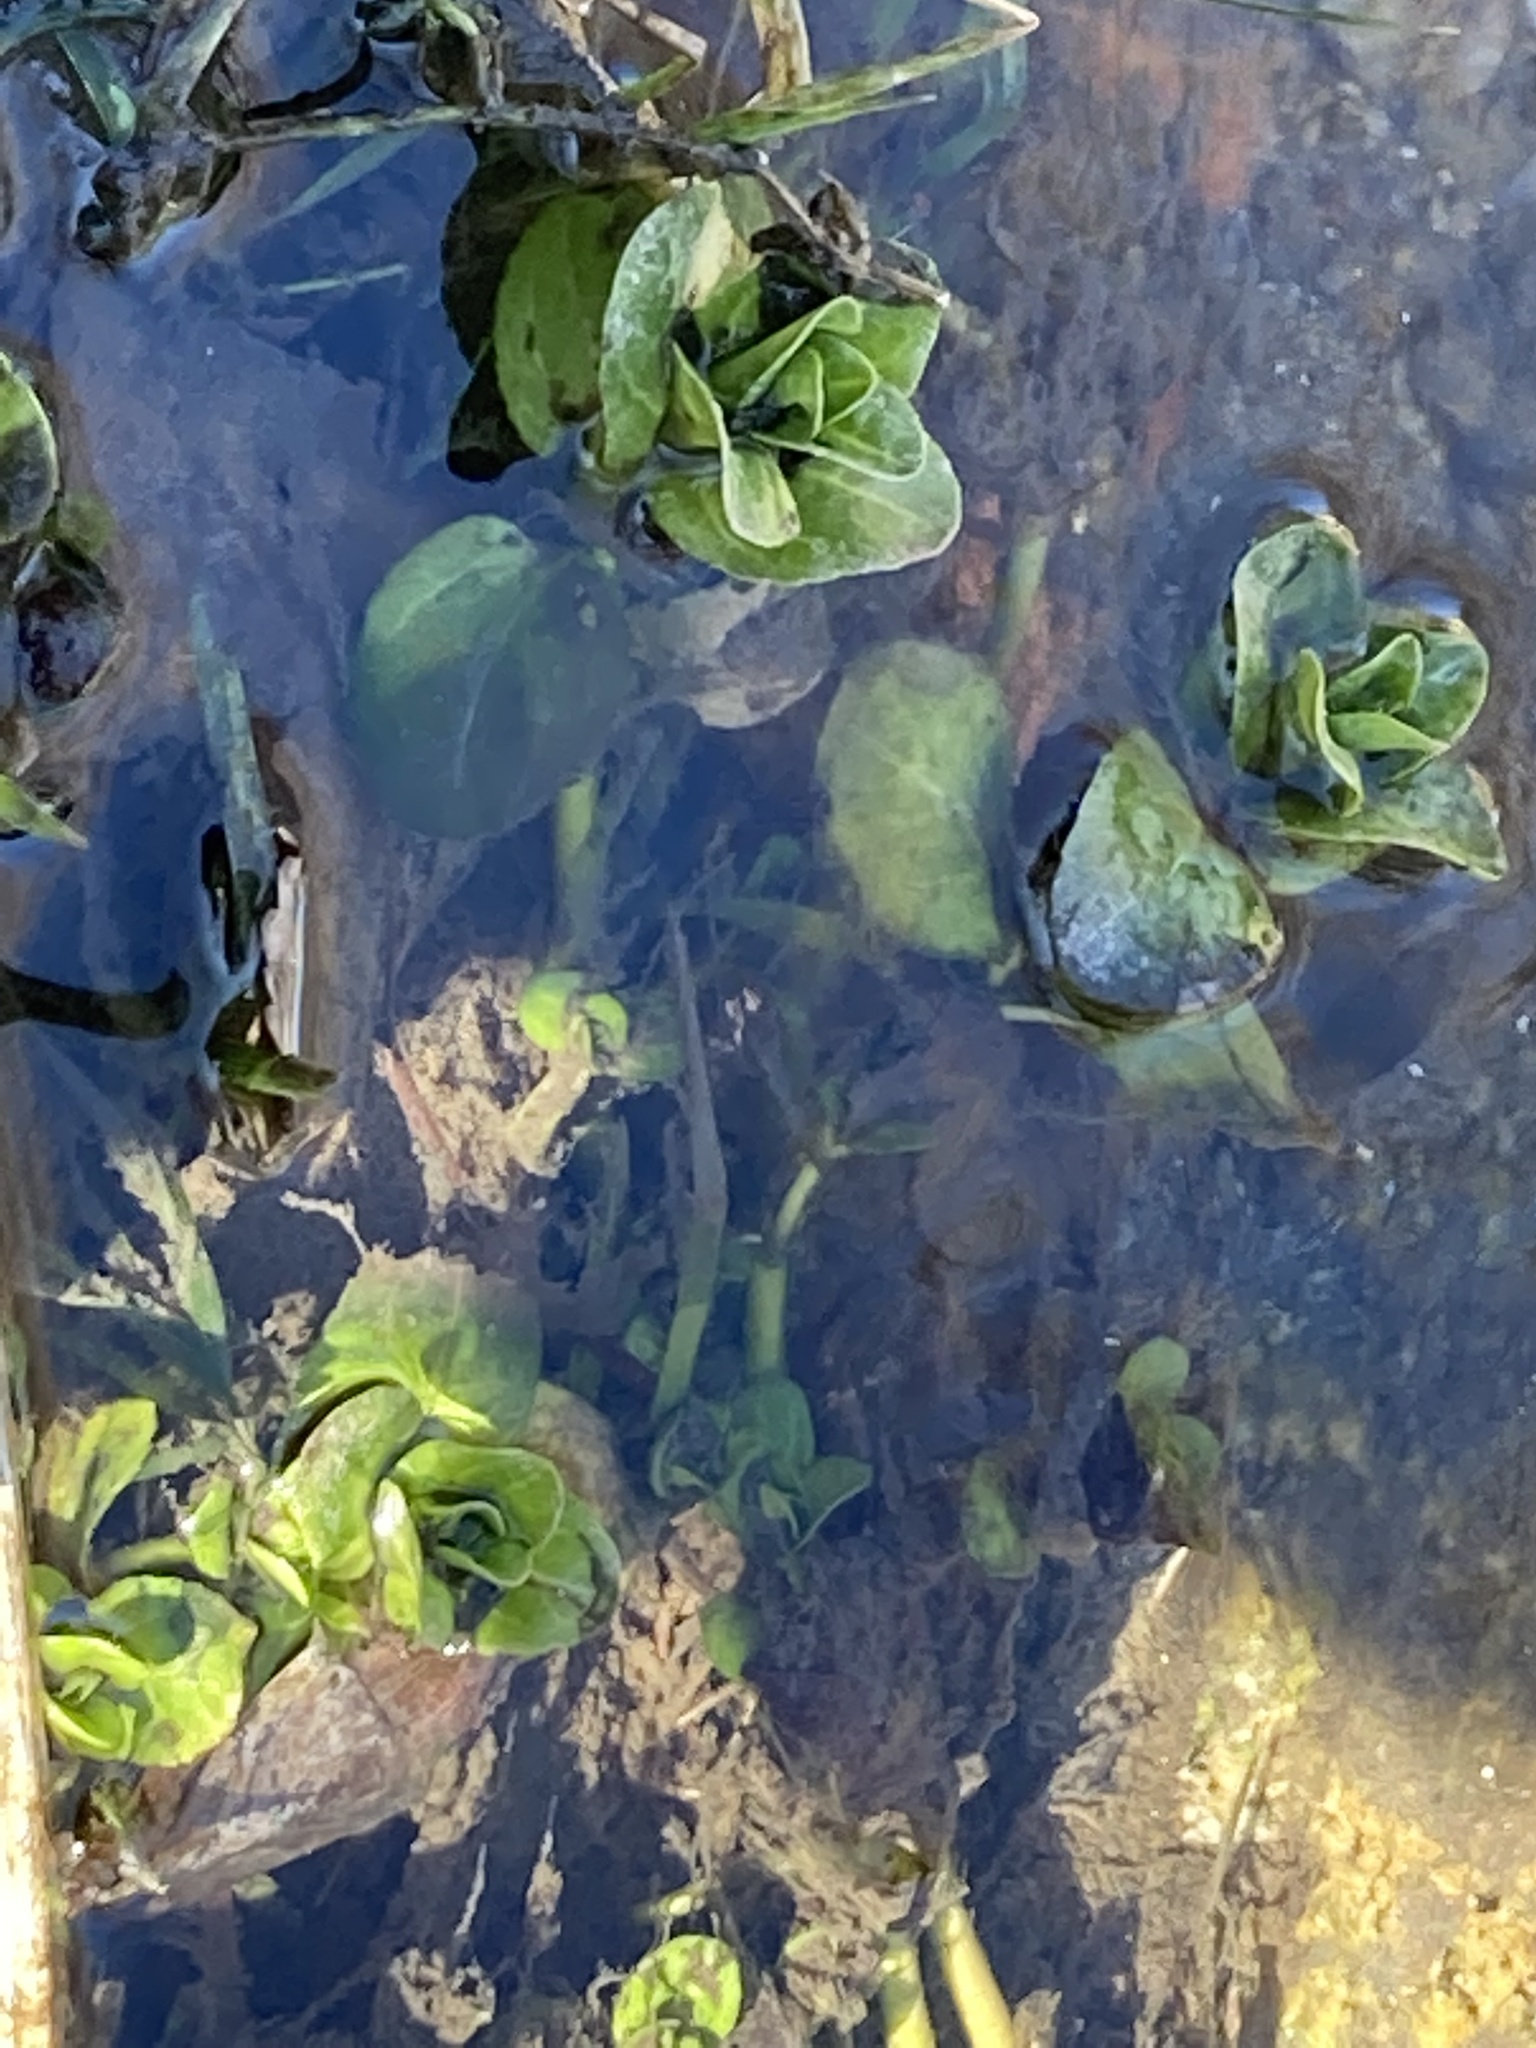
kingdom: Plantae
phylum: Tracheophyta
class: Magnoliopsida
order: Lamiales
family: Plantaginaceae
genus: Veronica
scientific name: Veronica beccabunga
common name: Brooklime
